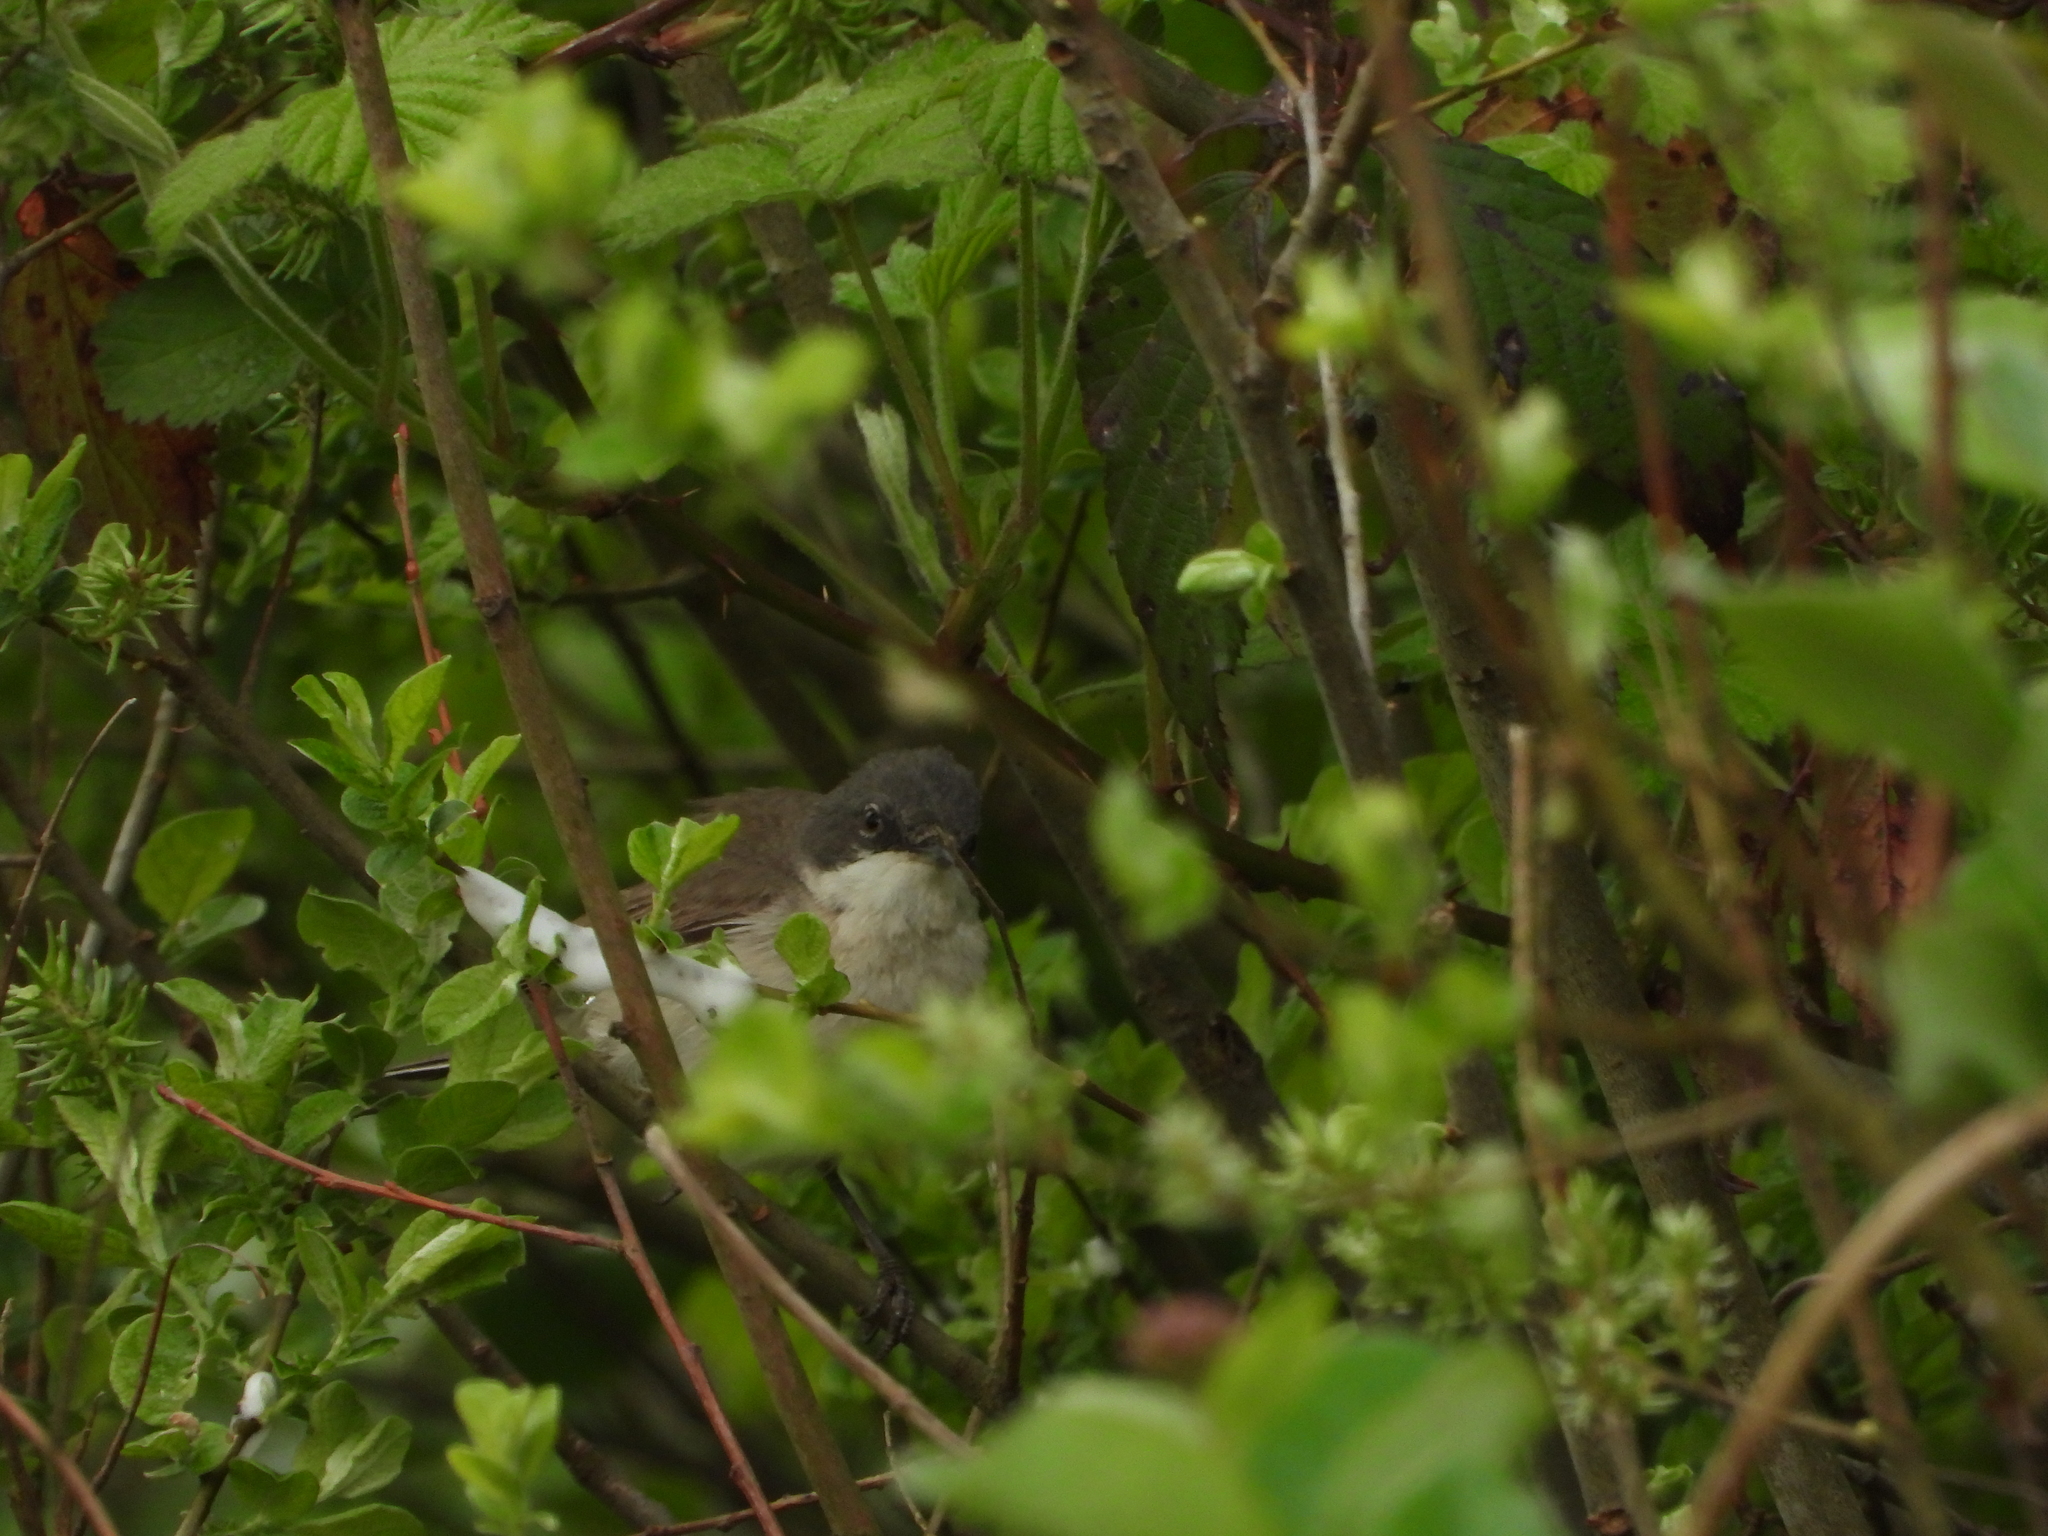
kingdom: Animalia
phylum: Chordata
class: Aves
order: Passeriformes
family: Sylviidae
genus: Sylvia
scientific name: Sylvia curruca
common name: Lesser whitethroat
